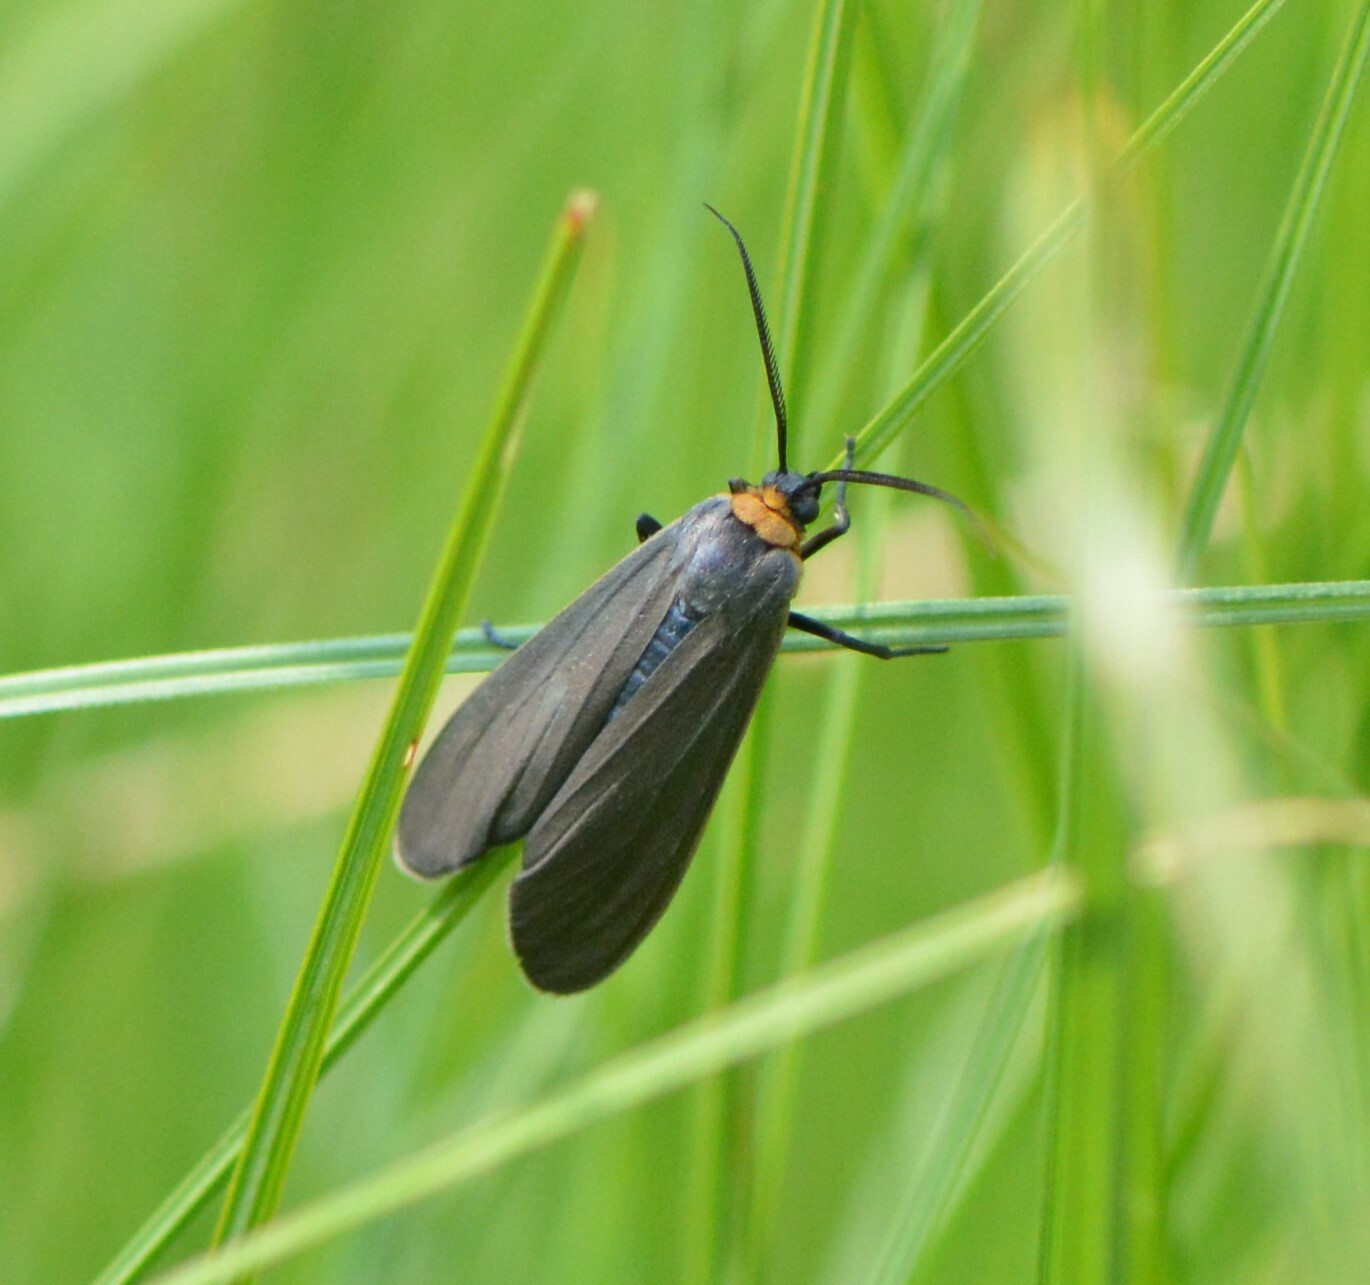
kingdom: Animalia
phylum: Arthropoda
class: Insecta
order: Lepidoptera
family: Erebidae
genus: Cisseps
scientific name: Cisseps fulvicollis
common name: Yellow-collared scape moth
